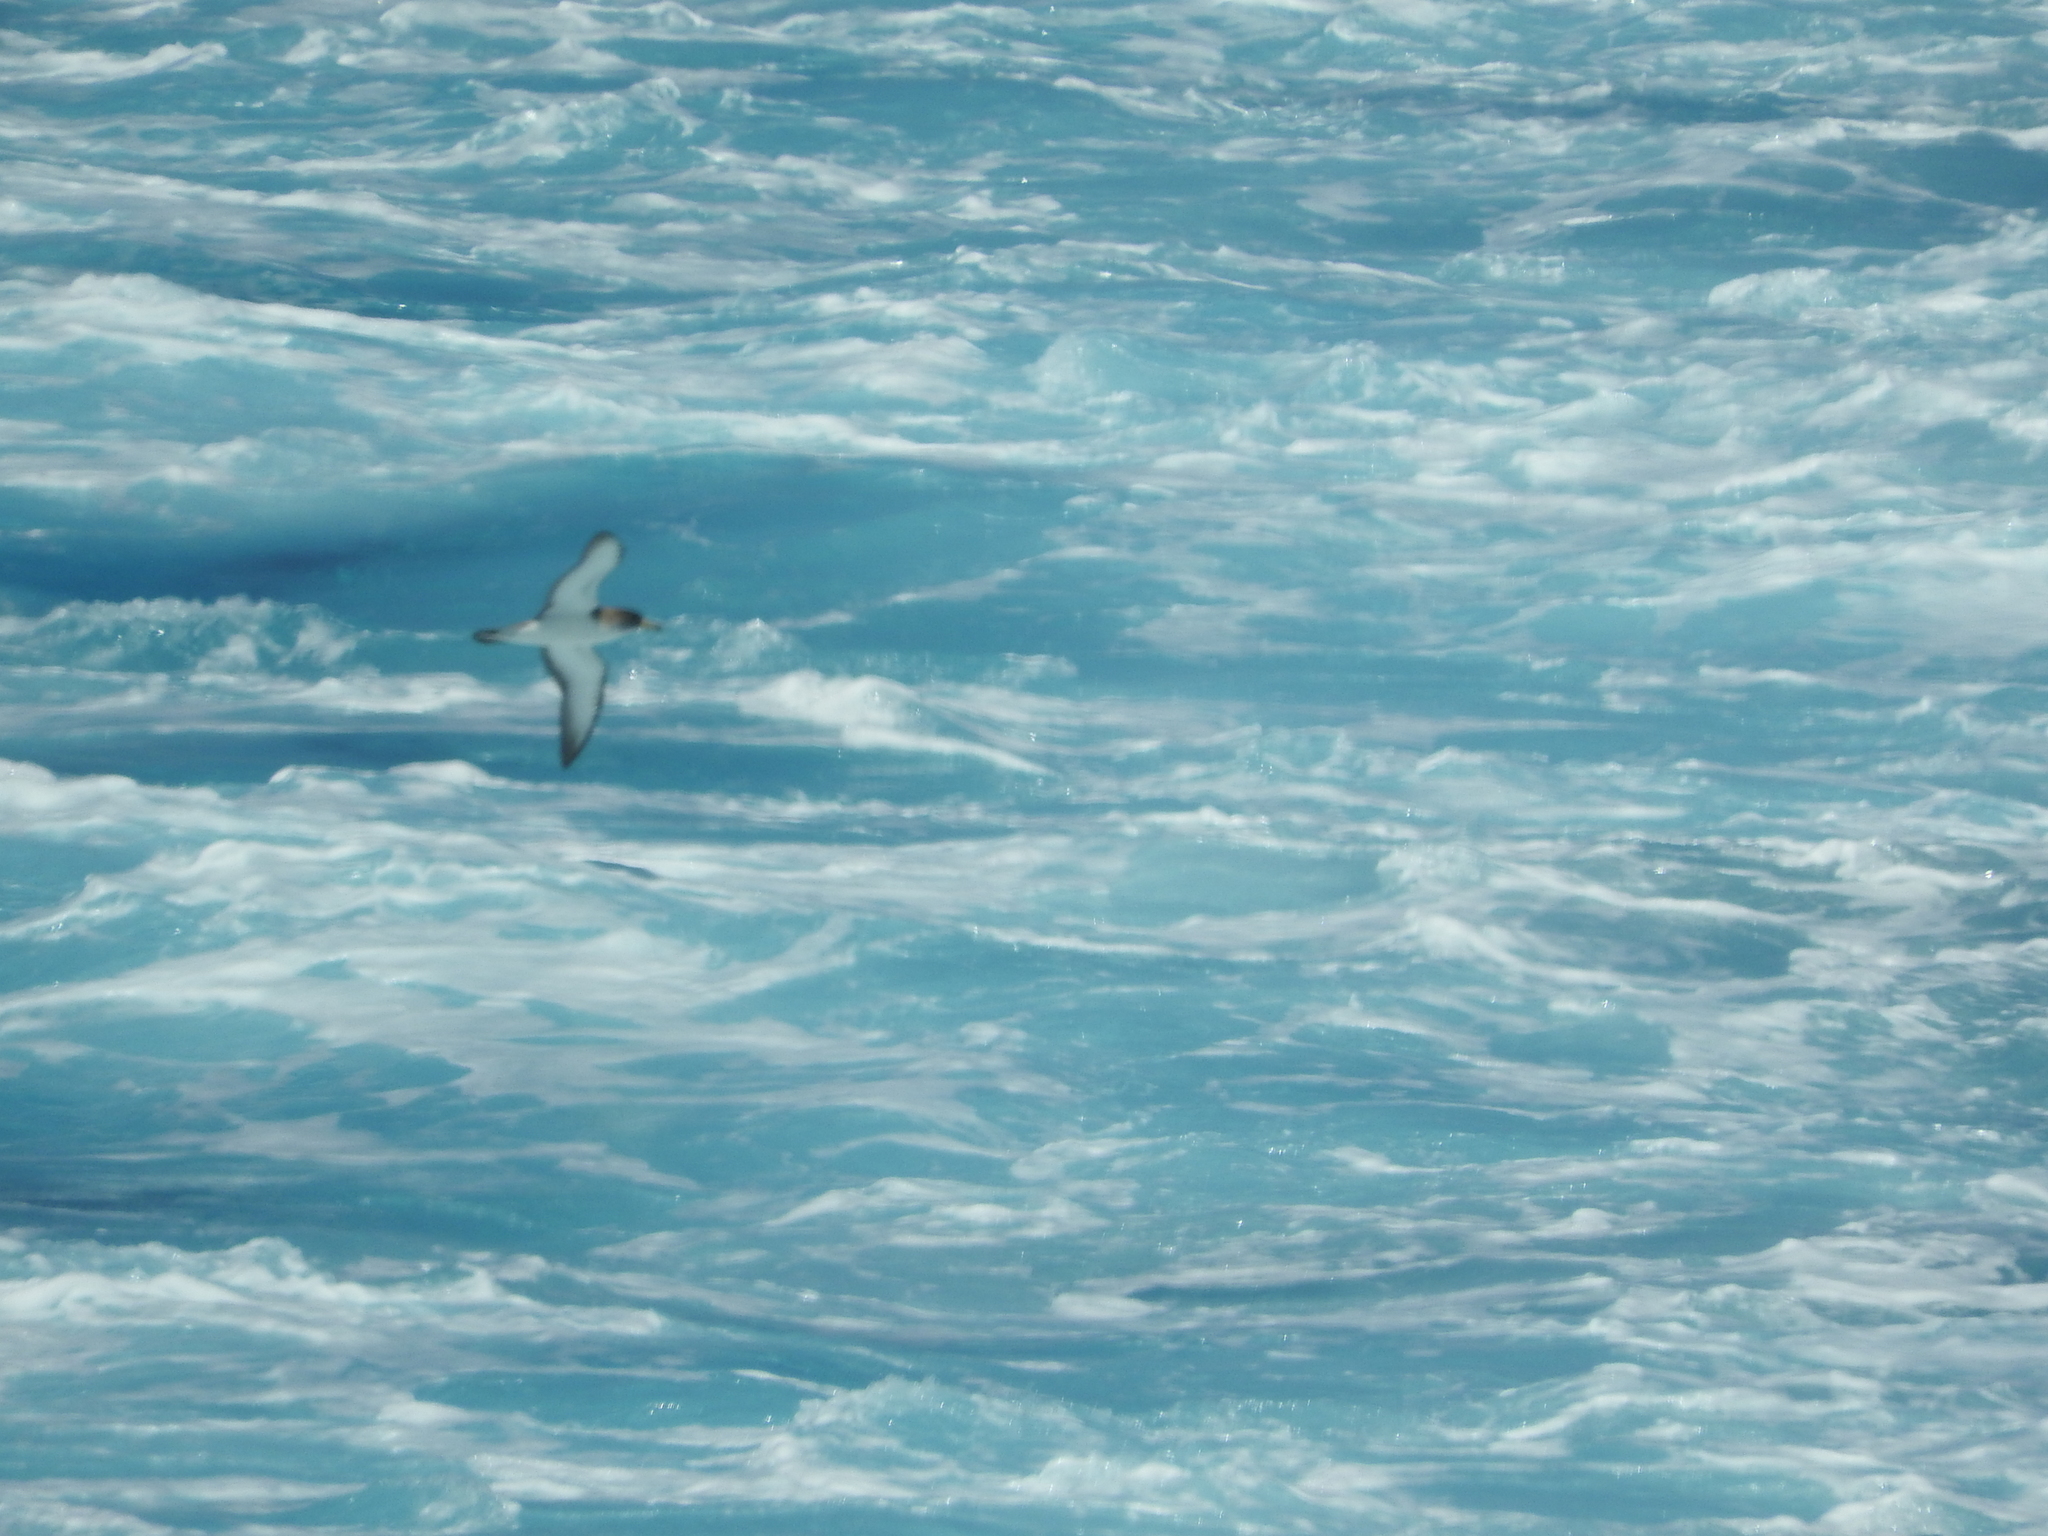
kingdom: Animalia
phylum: Chordata
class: Aves
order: Procellariiformes
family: Procellariidae
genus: Calonectris
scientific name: Calonectris diomedea
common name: Cory's shearwater
